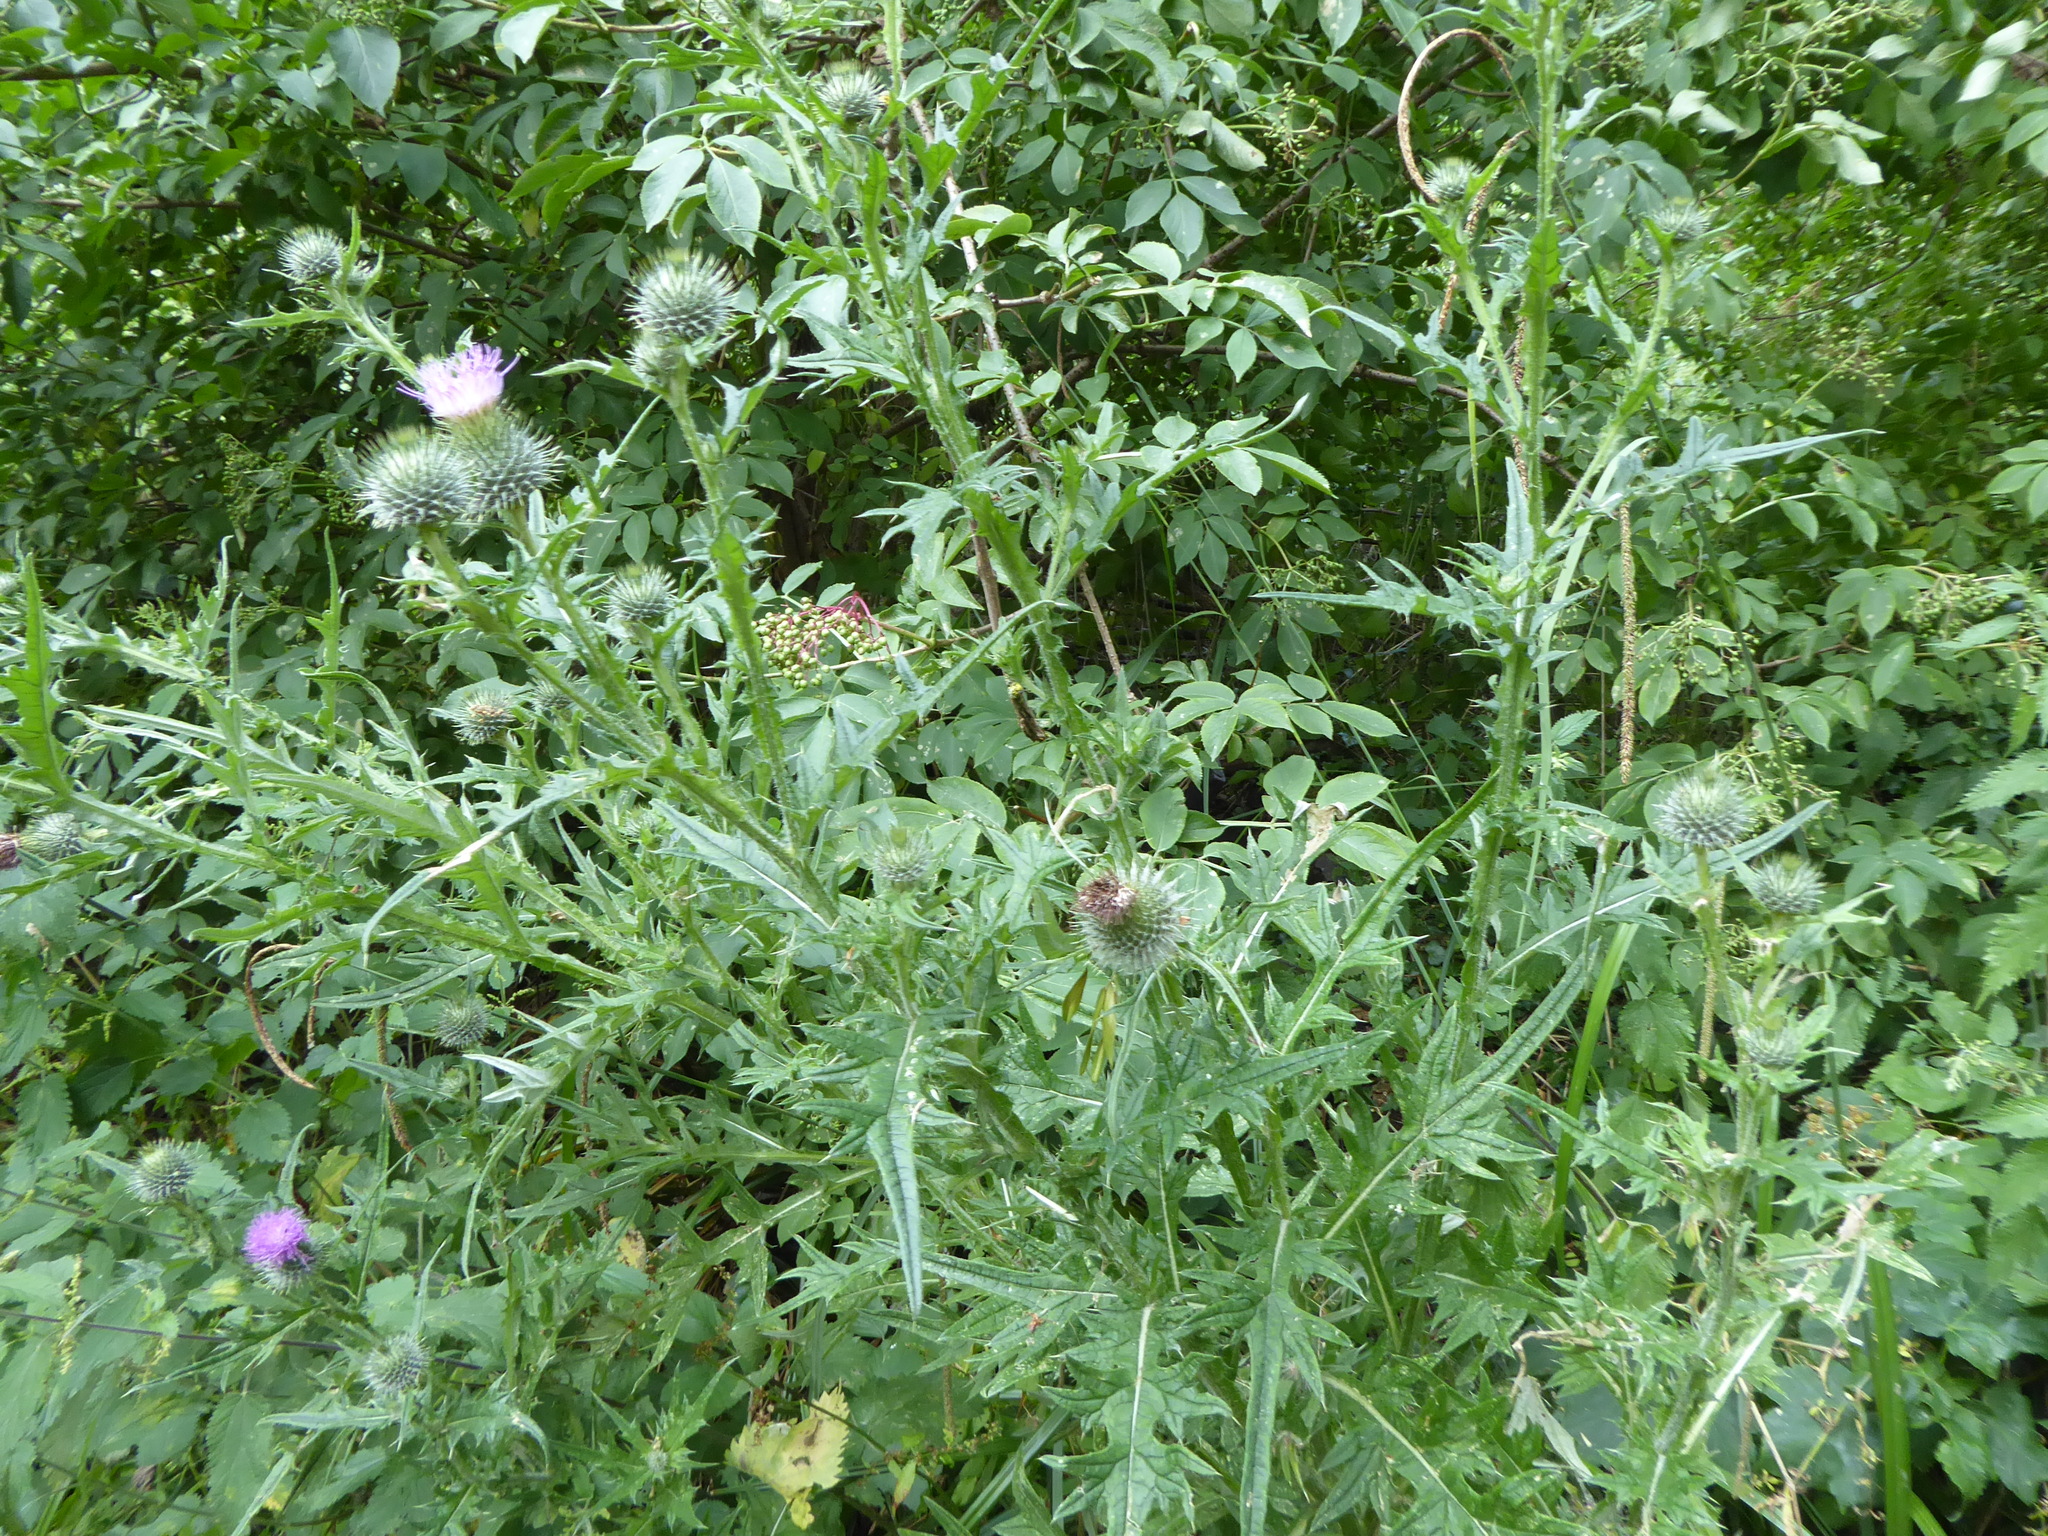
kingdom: Plantae
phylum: Tracheophyta
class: Magnoliopsida
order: Asterales
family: Asteraceae
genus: Cirsium
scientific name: Cirsium vulgare
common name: Bull thistle
